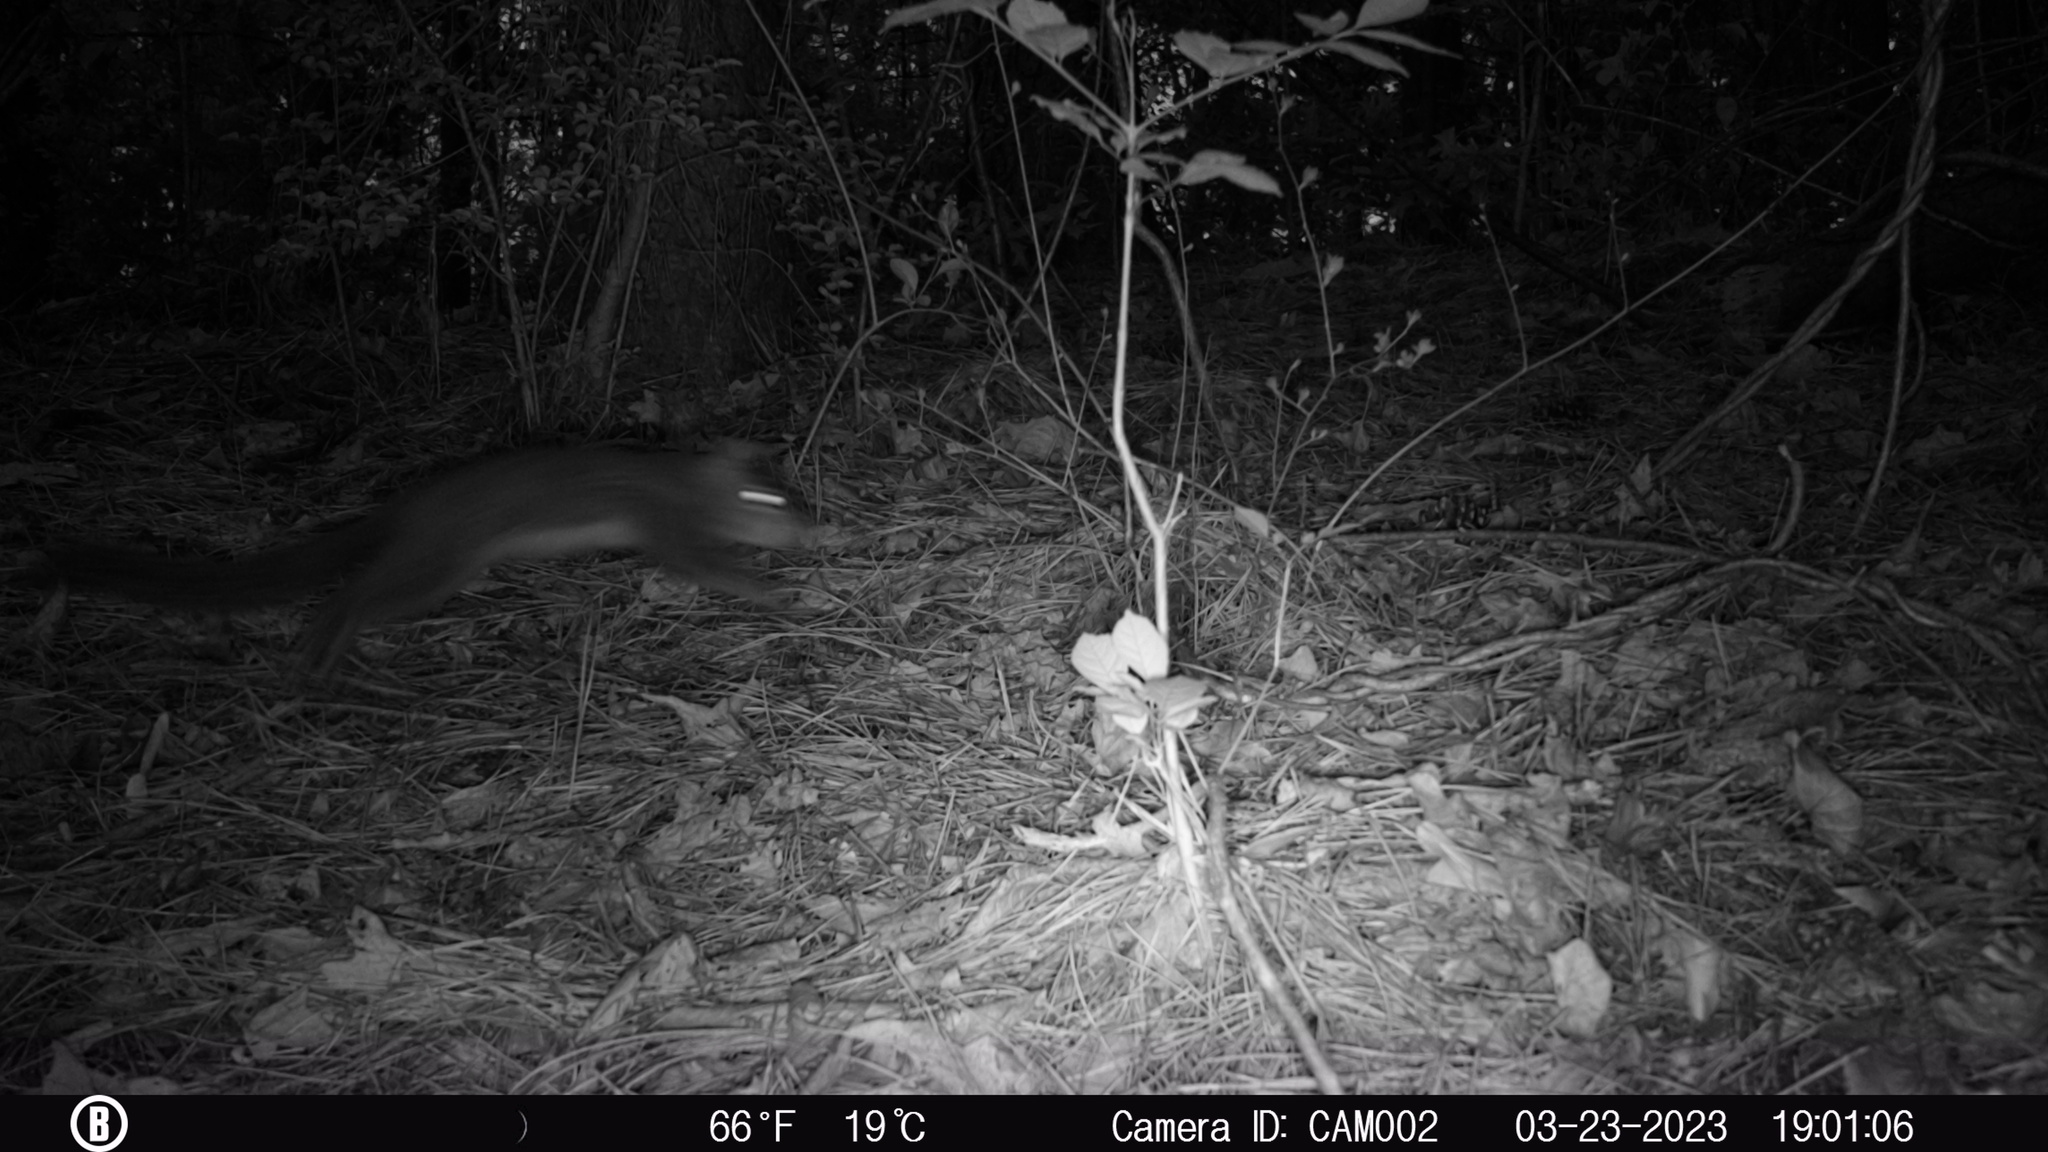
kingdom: Animalia
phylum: Chordata
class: Mammalia
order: Rodentia
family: Sciuridae
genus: Sciurus
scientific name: Sciurus carolinensis
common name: Eastern gray squirrel
